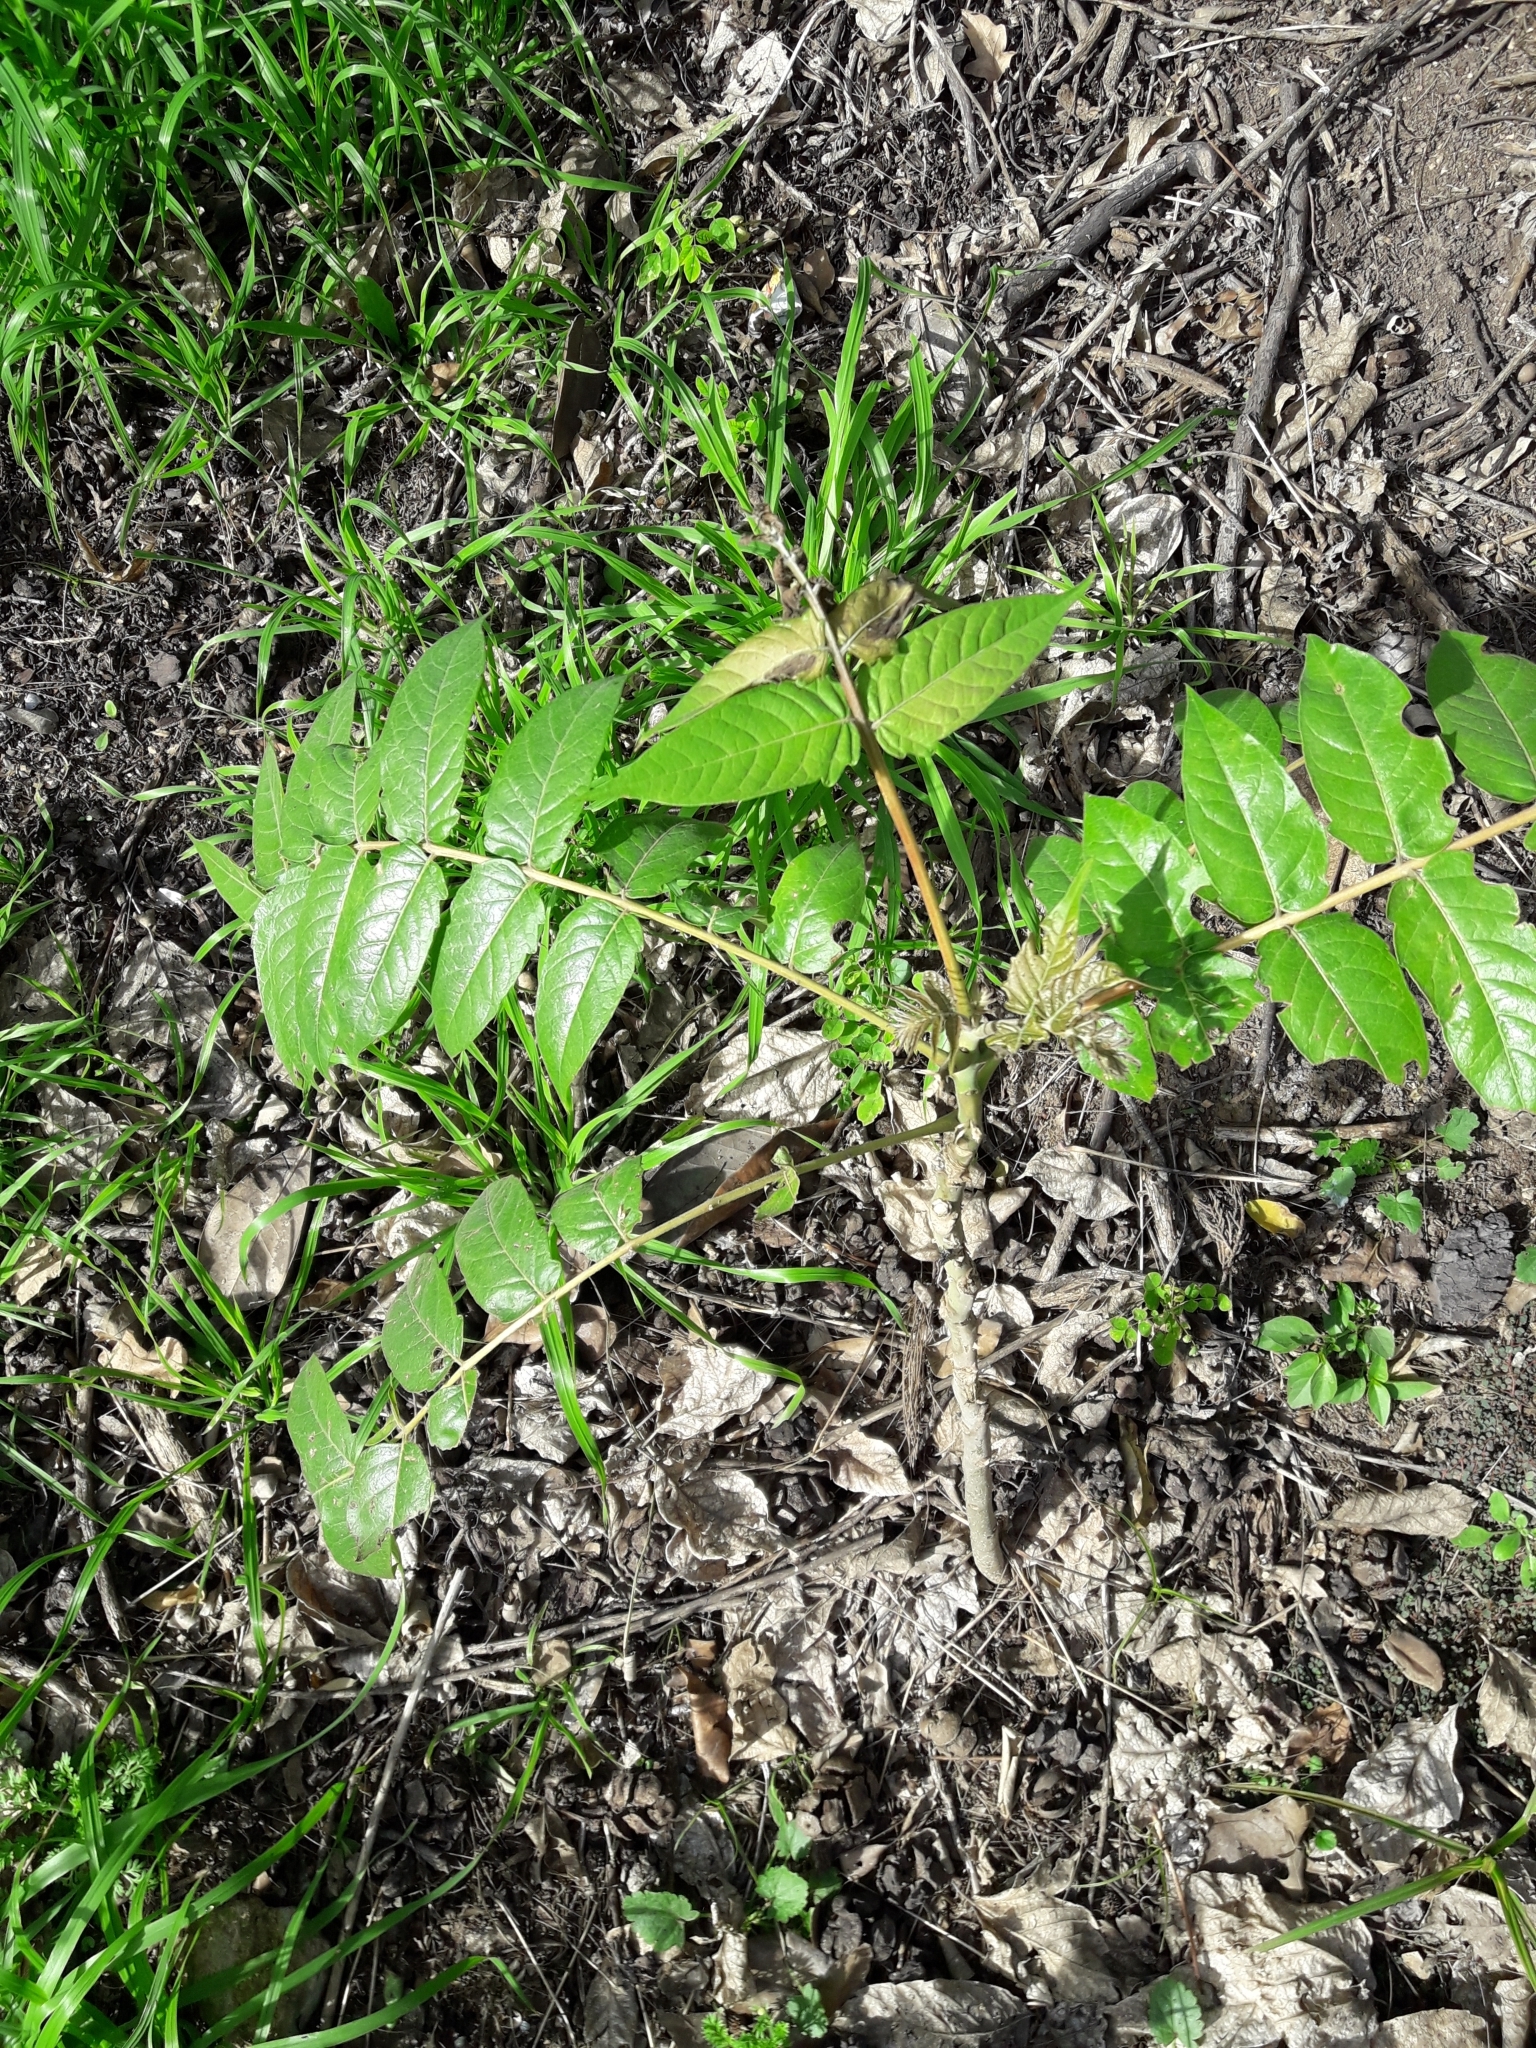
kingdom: Plantae
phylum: Tracheophyta
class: Magnoliopsida
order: Sapindales
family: Simaroubaceae
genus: Ailanthus
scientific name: Ailanthus altissima
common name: Tree-of-heaven
